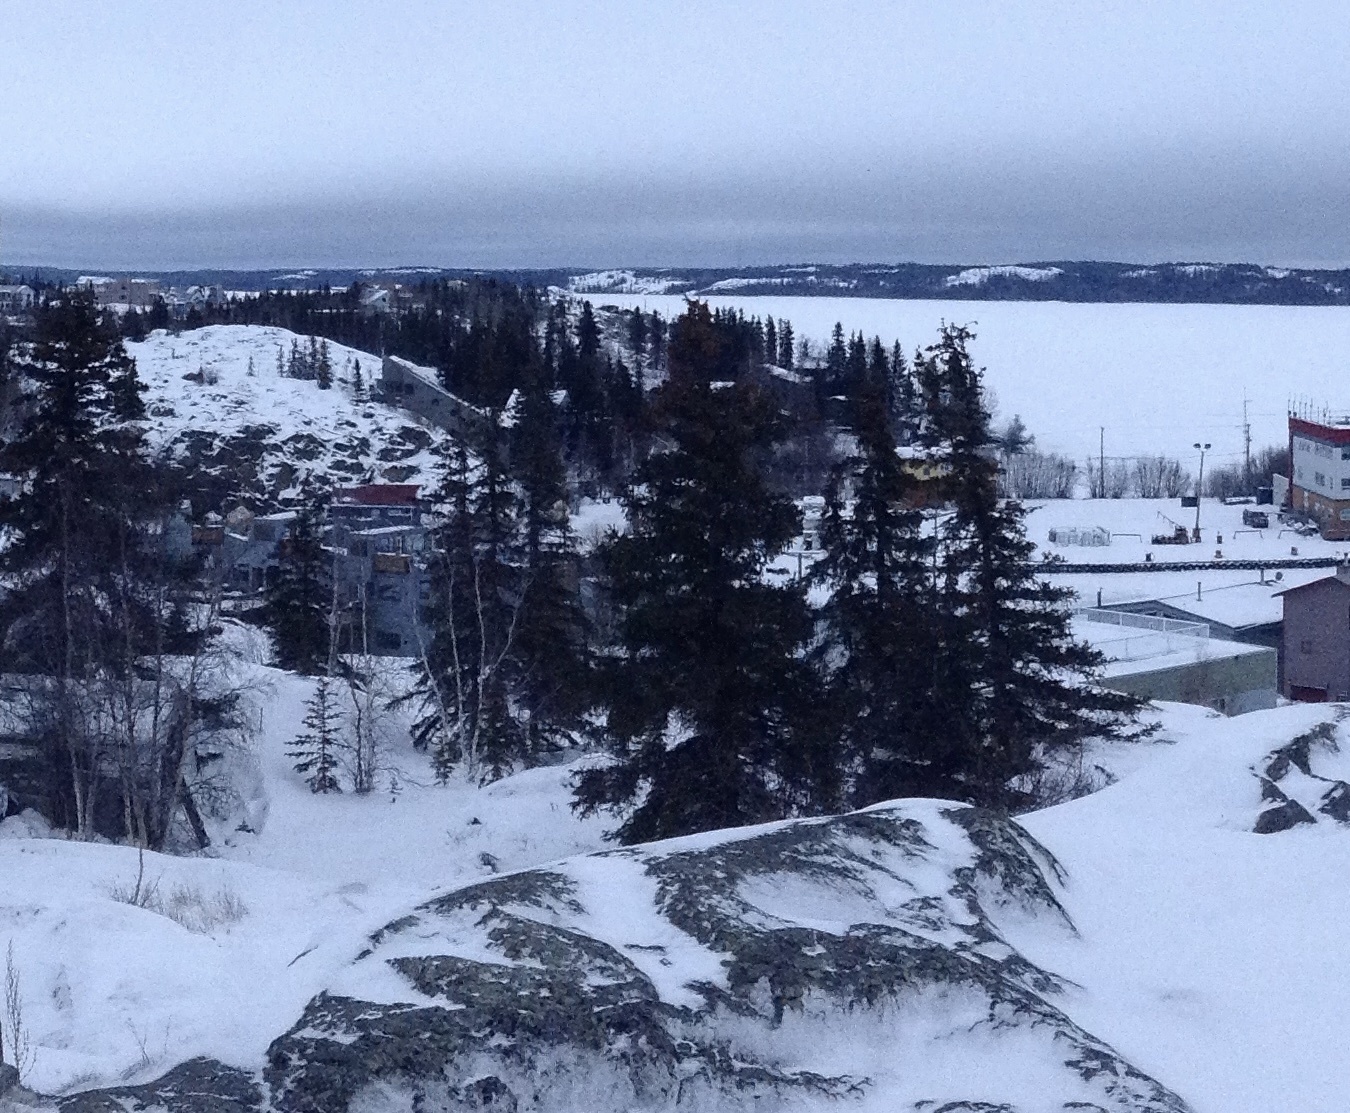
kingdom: Plantae
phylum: Tracheophyta
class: Pinopsida
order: Pinales
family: Pinaceae
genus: Picea
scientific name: Picea glauca
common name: White spruce
